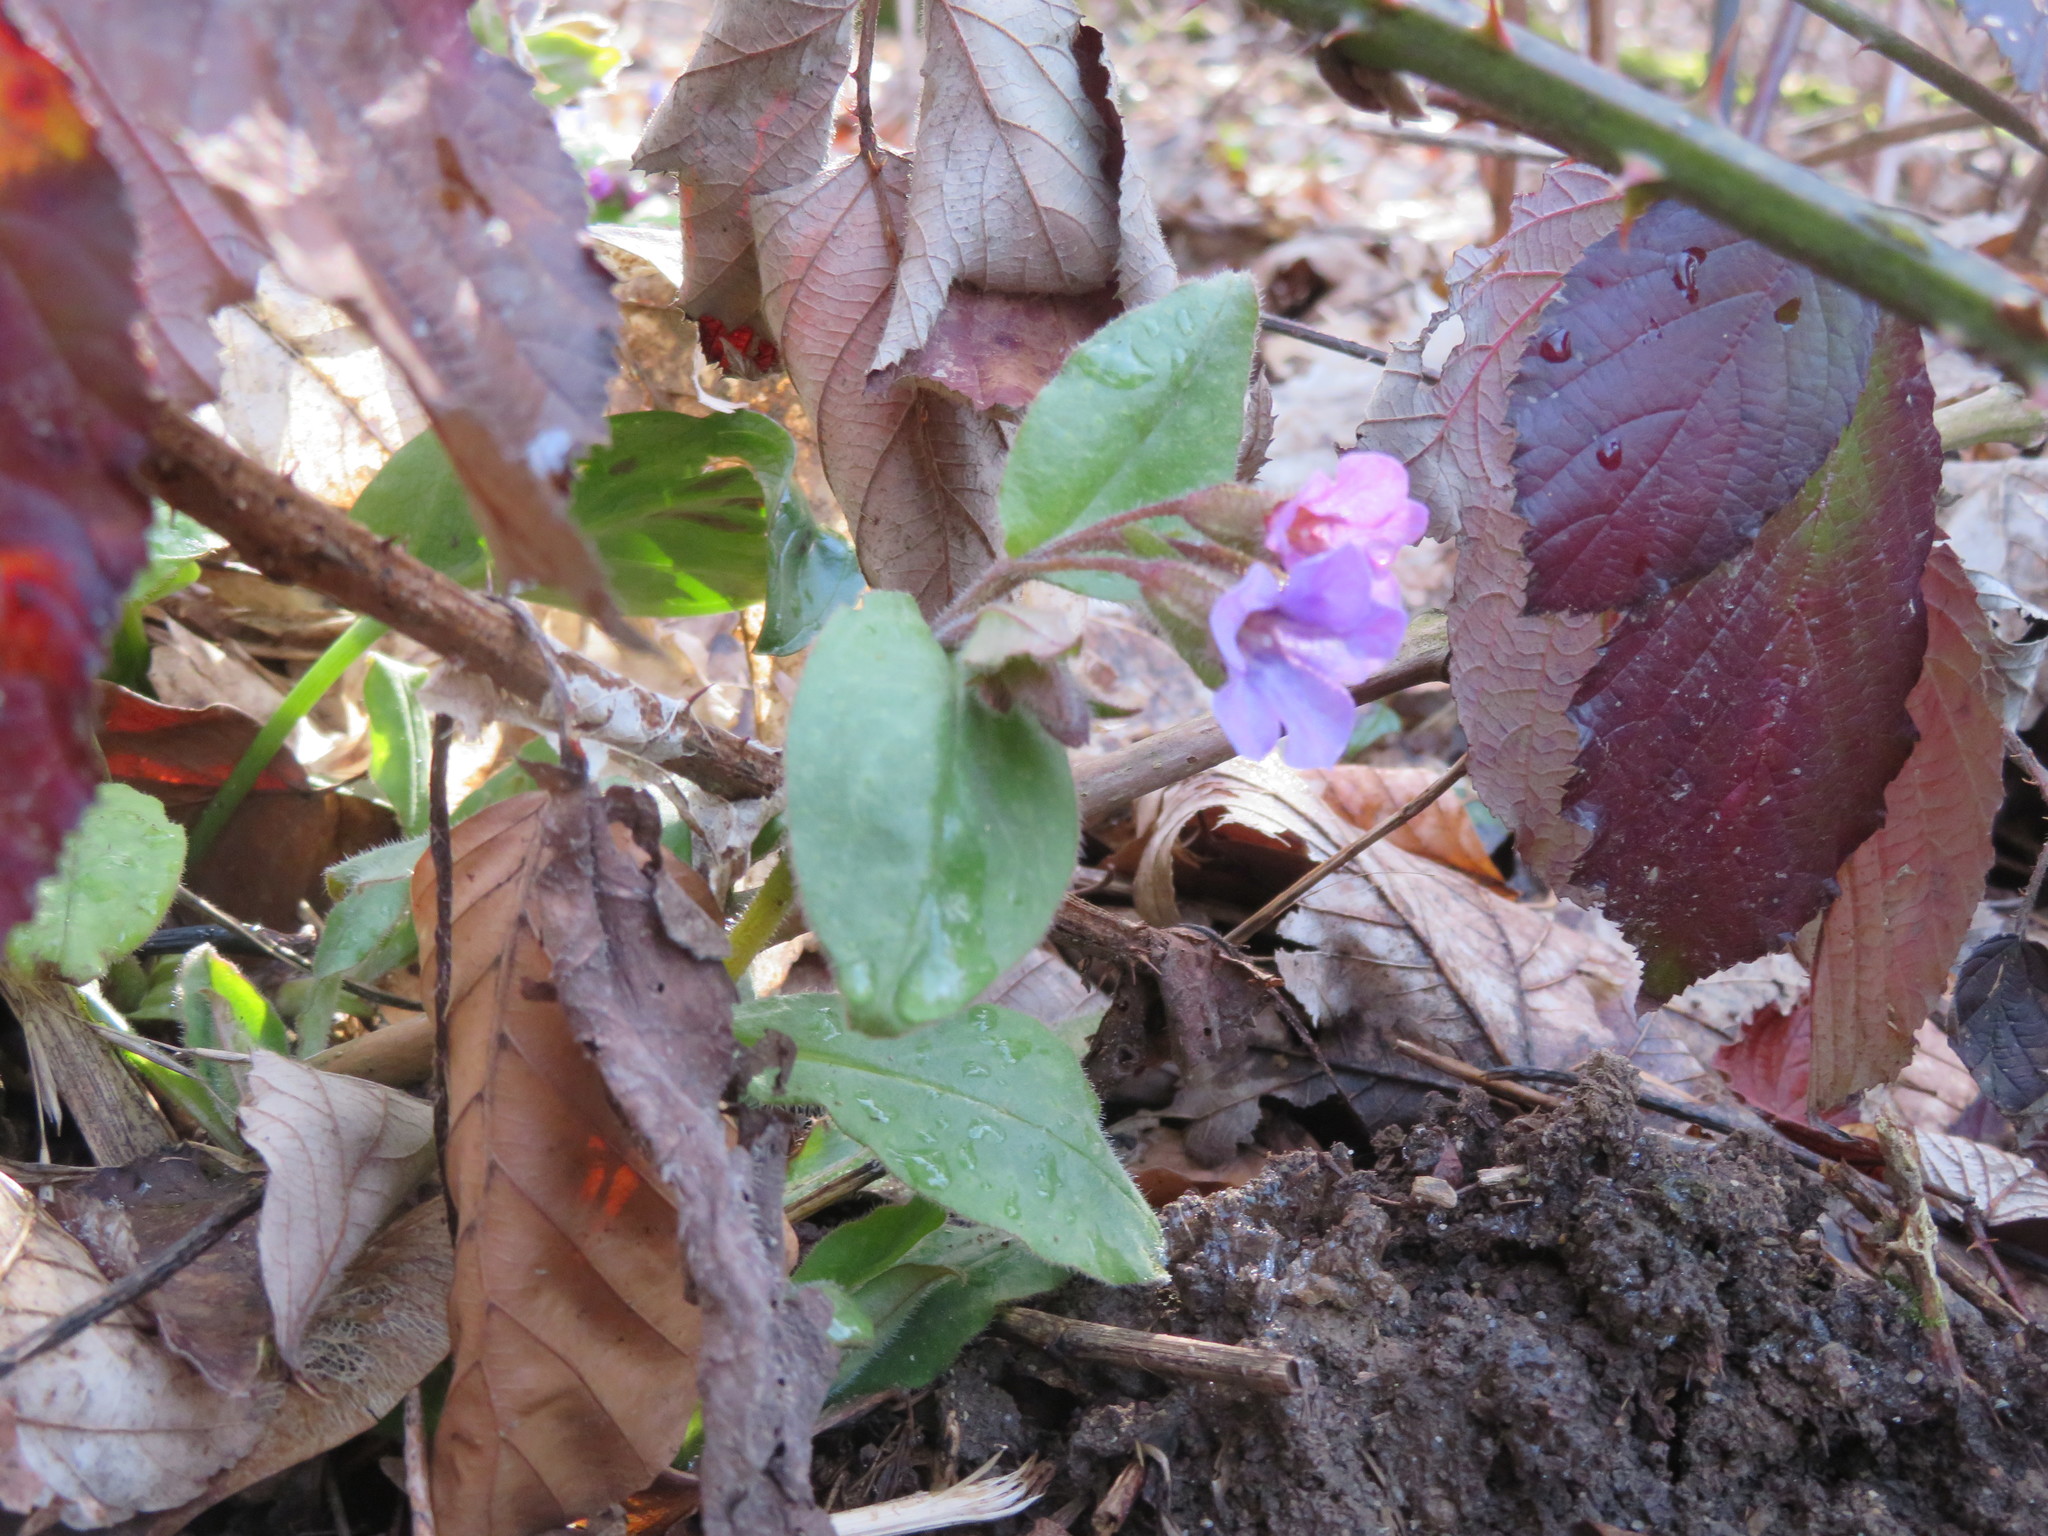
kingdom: Plantae
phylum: Tracheophyta
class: Magnoliopsida
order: Boraginales
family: Boraginaceae
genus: Pulmonaria
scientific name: Pulmonaria obscura
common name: Suffolk lungwort
